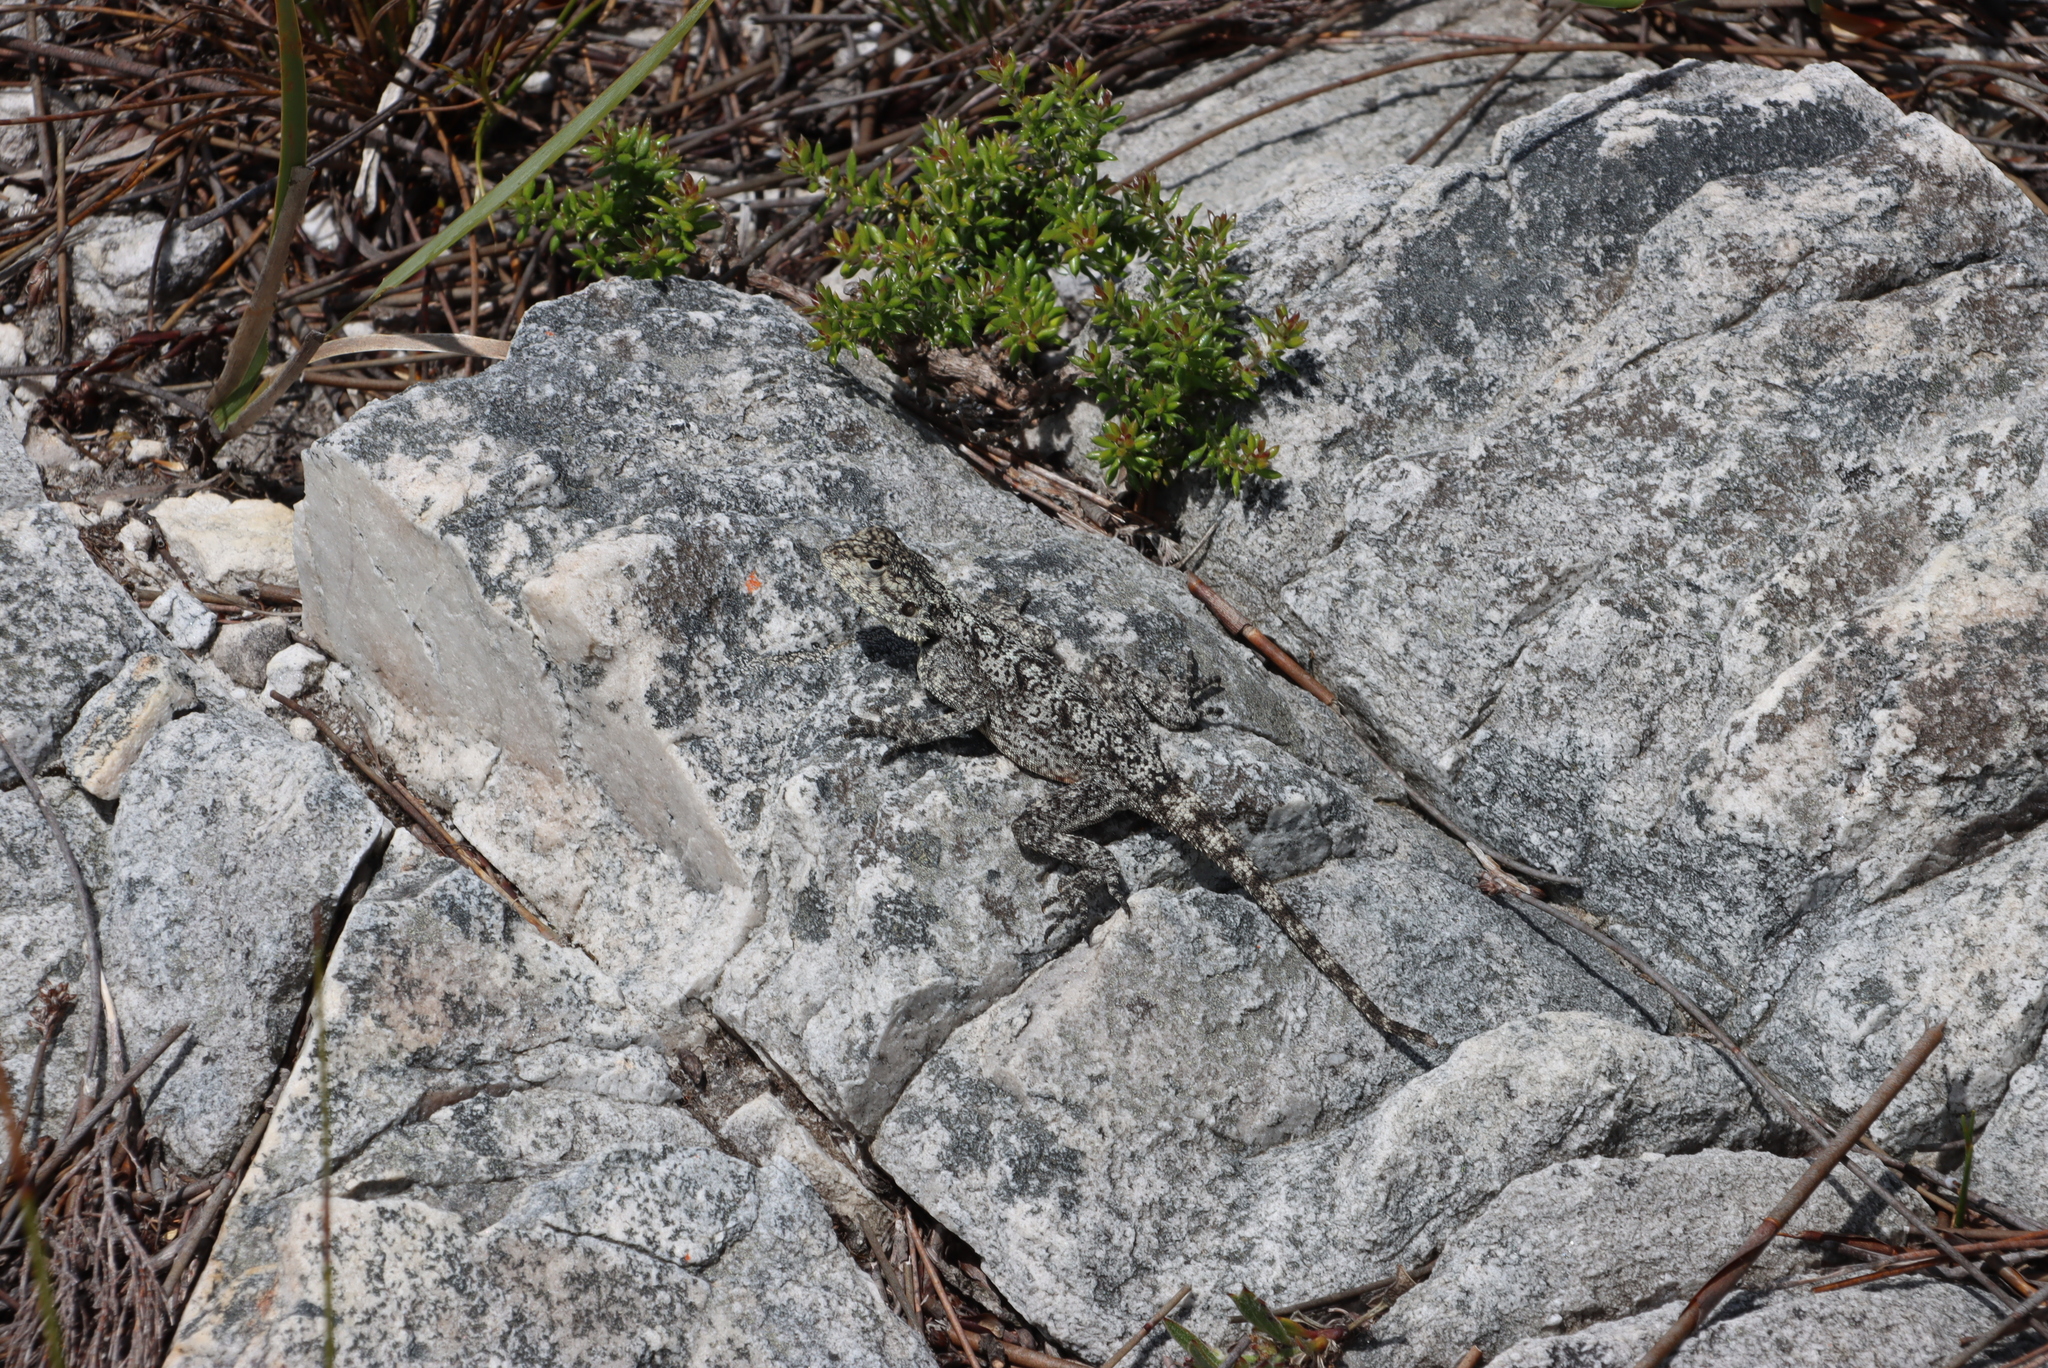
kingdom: Animalia
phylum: Chordata
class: Squamata
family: Agamidae
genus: Agama
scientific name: Agama atra
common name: Southern african rock agama
